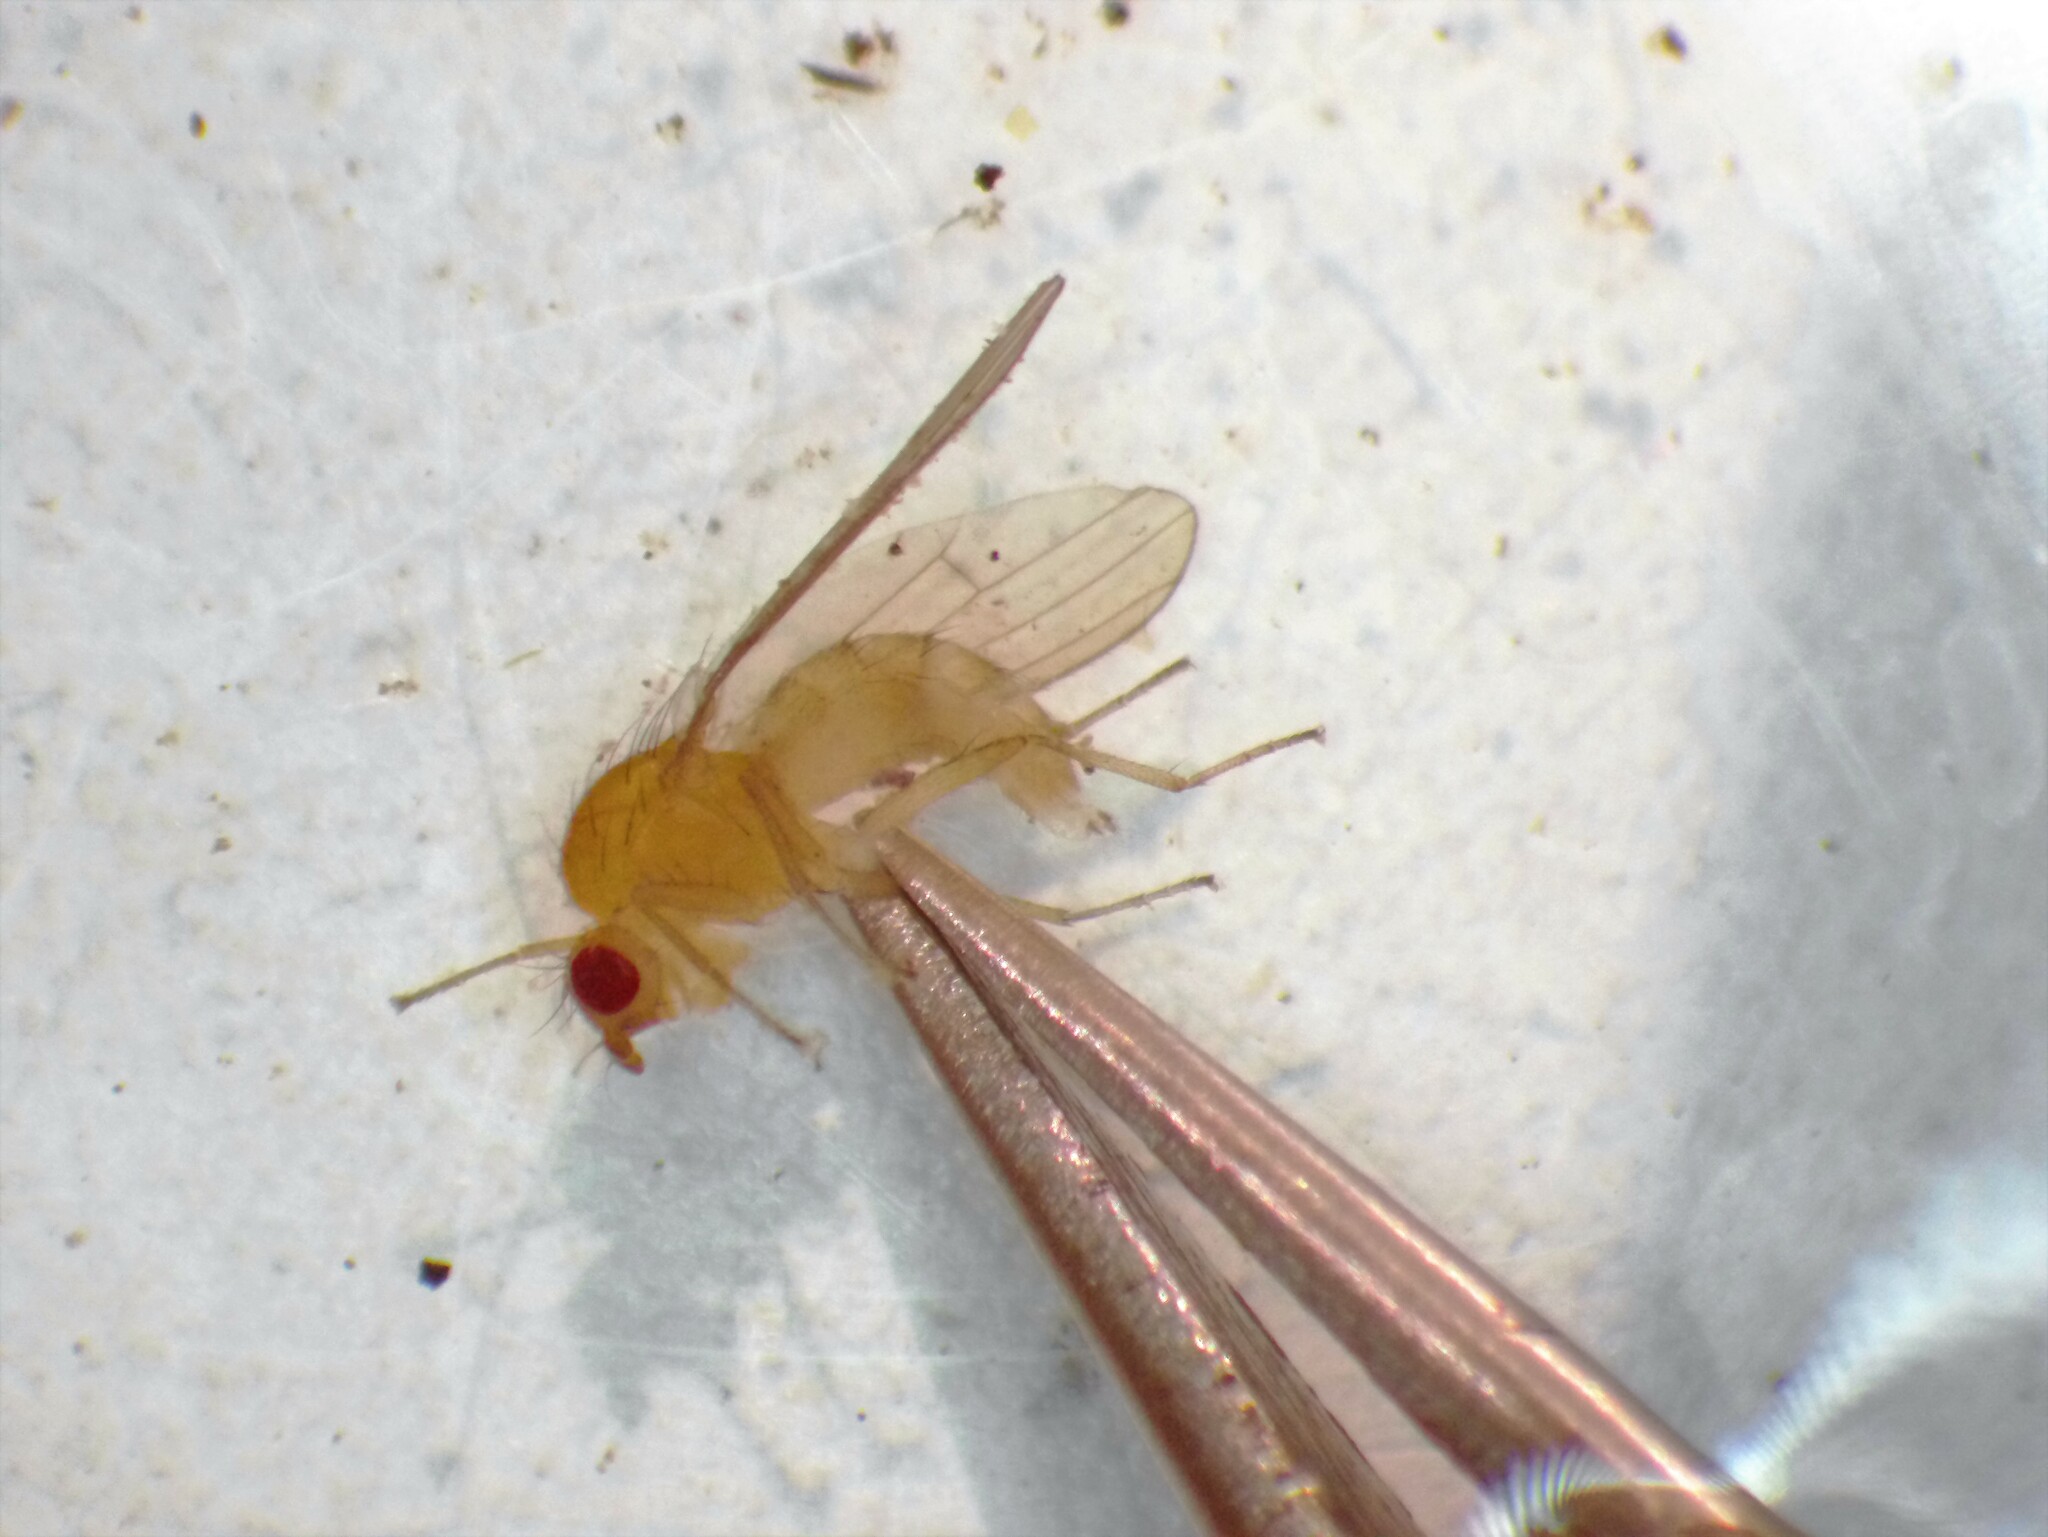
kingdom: Animalia
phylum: Arthropoda
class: Insecta
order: Diptera
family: Heleomyzidae
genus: Allophyla
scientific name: Allophyla laevis
